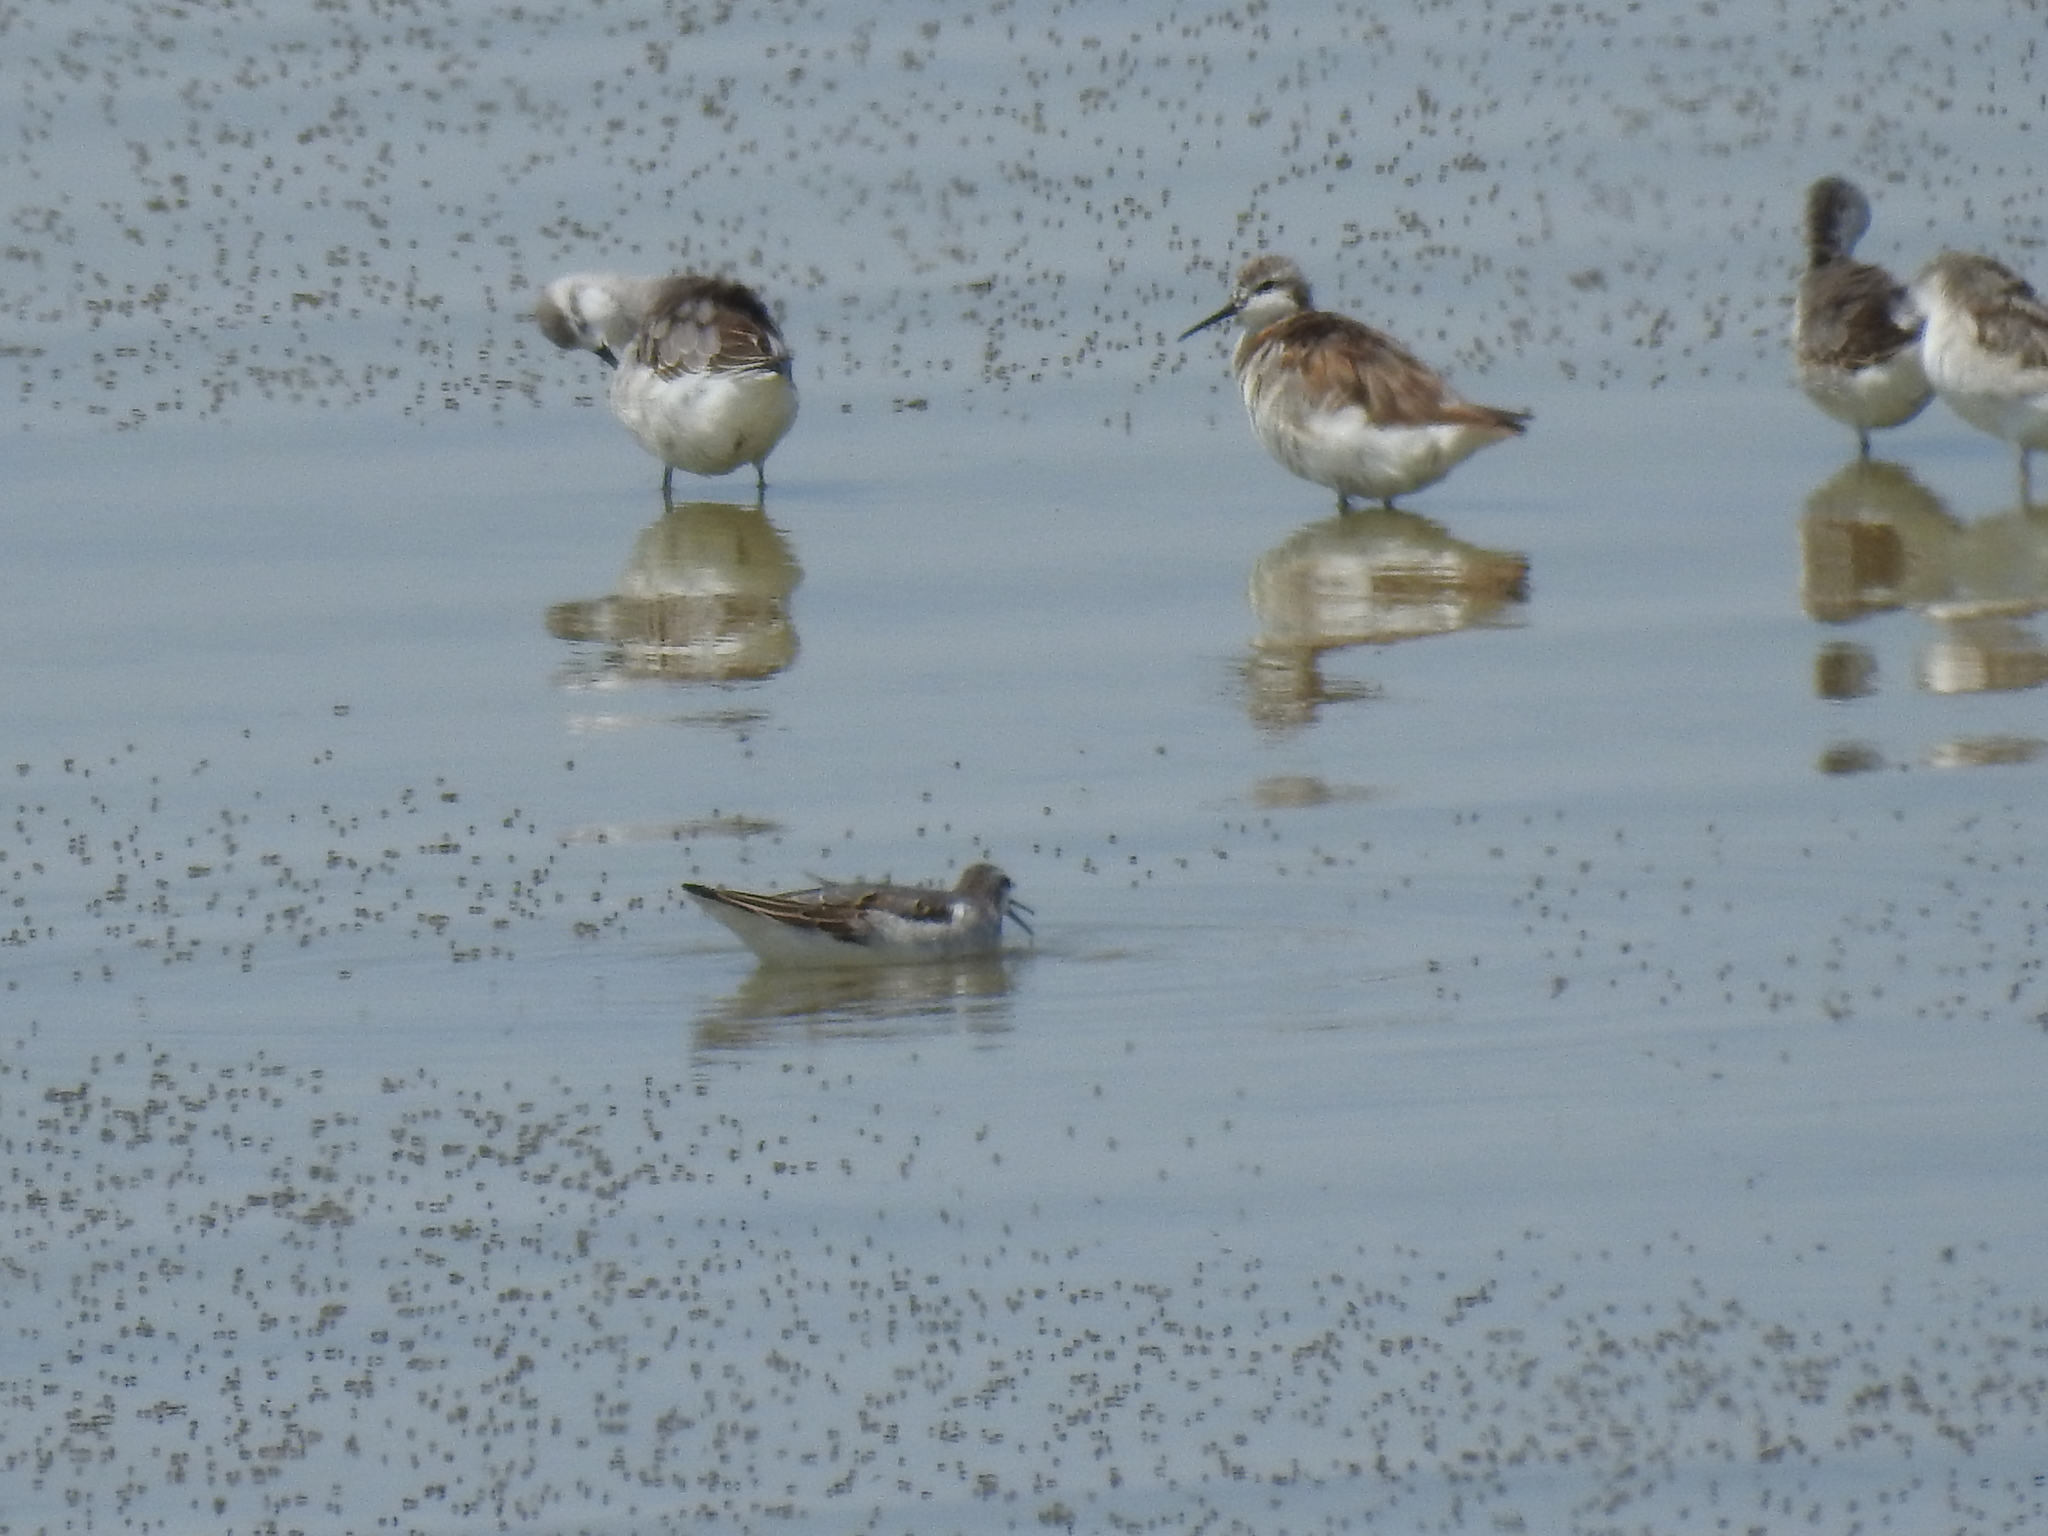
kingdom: Animalia
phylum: Chordata
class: Aves
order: Charadriiformes
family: Scolopacidae
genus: Phalaropus
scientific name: Phalaropus tricolor
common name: Wilson's phalarope
